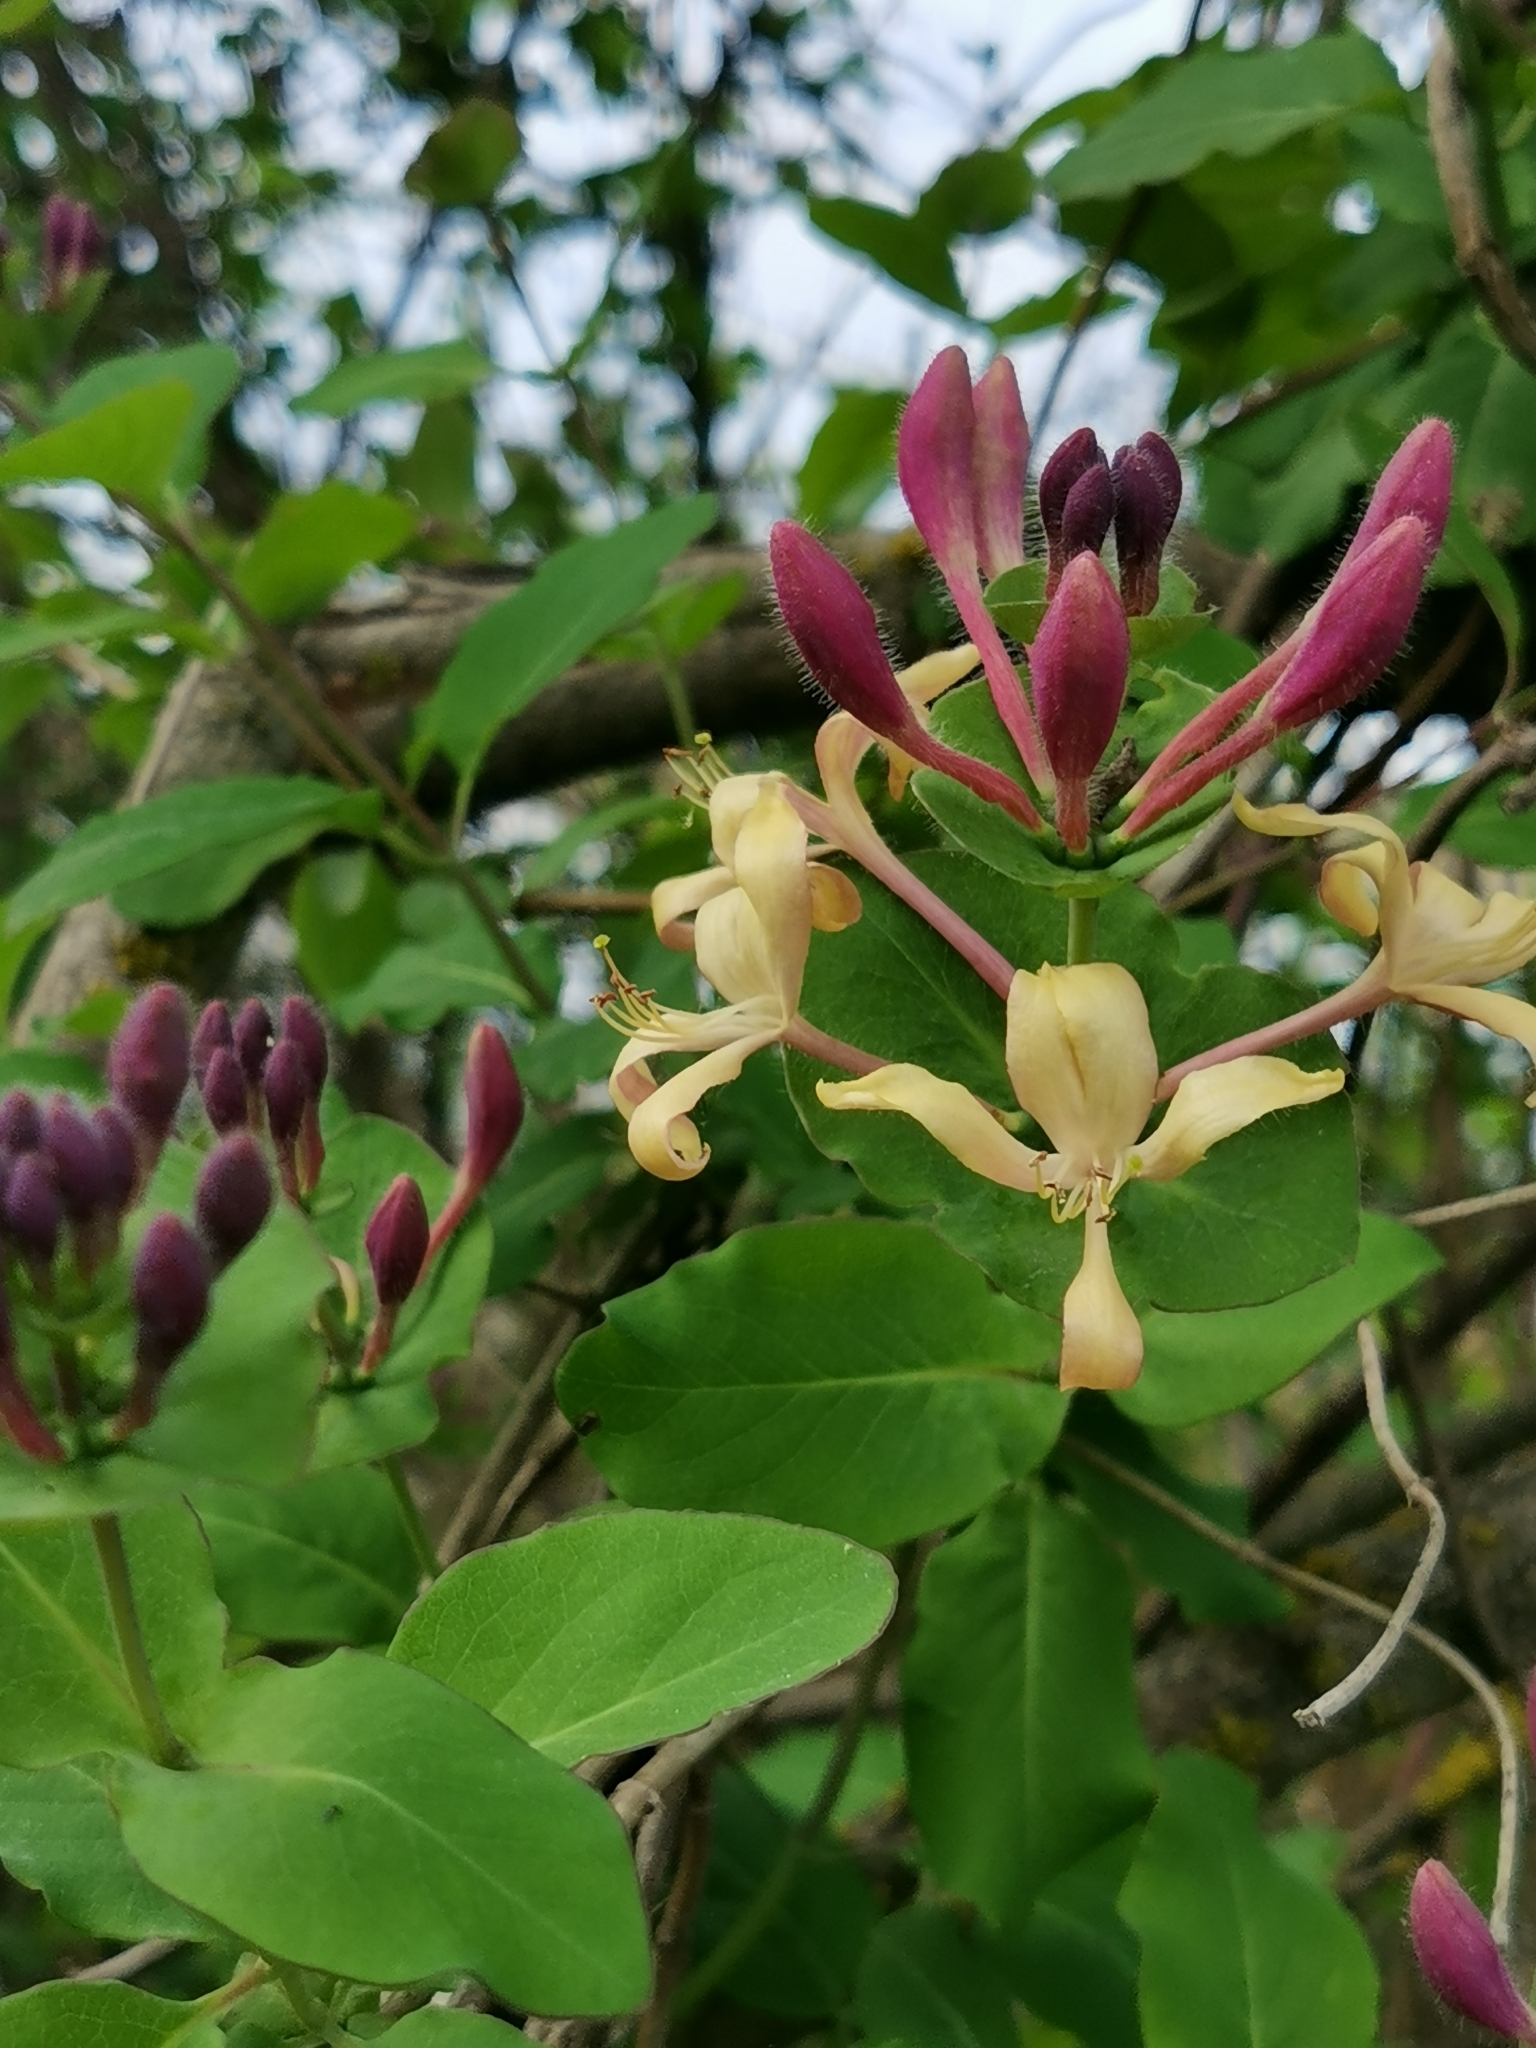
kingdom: Plantae
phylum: Tracheophyta
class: Magnoliopsida
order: Dipsacales
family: Caprifoliaceae
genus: Lonicera
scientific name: Lonicera caprifolium
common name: Perfoliate honeysuckle
